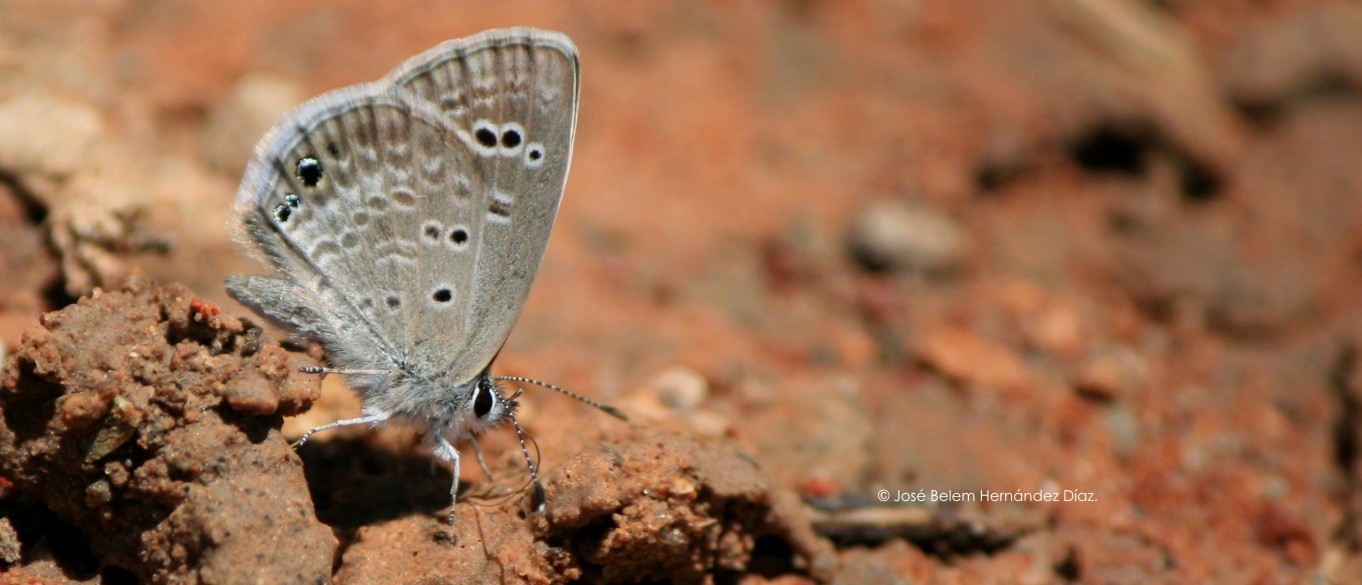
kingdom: Animalia
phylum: Arthropoda
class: Insecta
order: Lepidoptera
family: Lycaenidae
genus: Echinargus
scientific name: Echinargus isola
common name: Reakirt's blue
